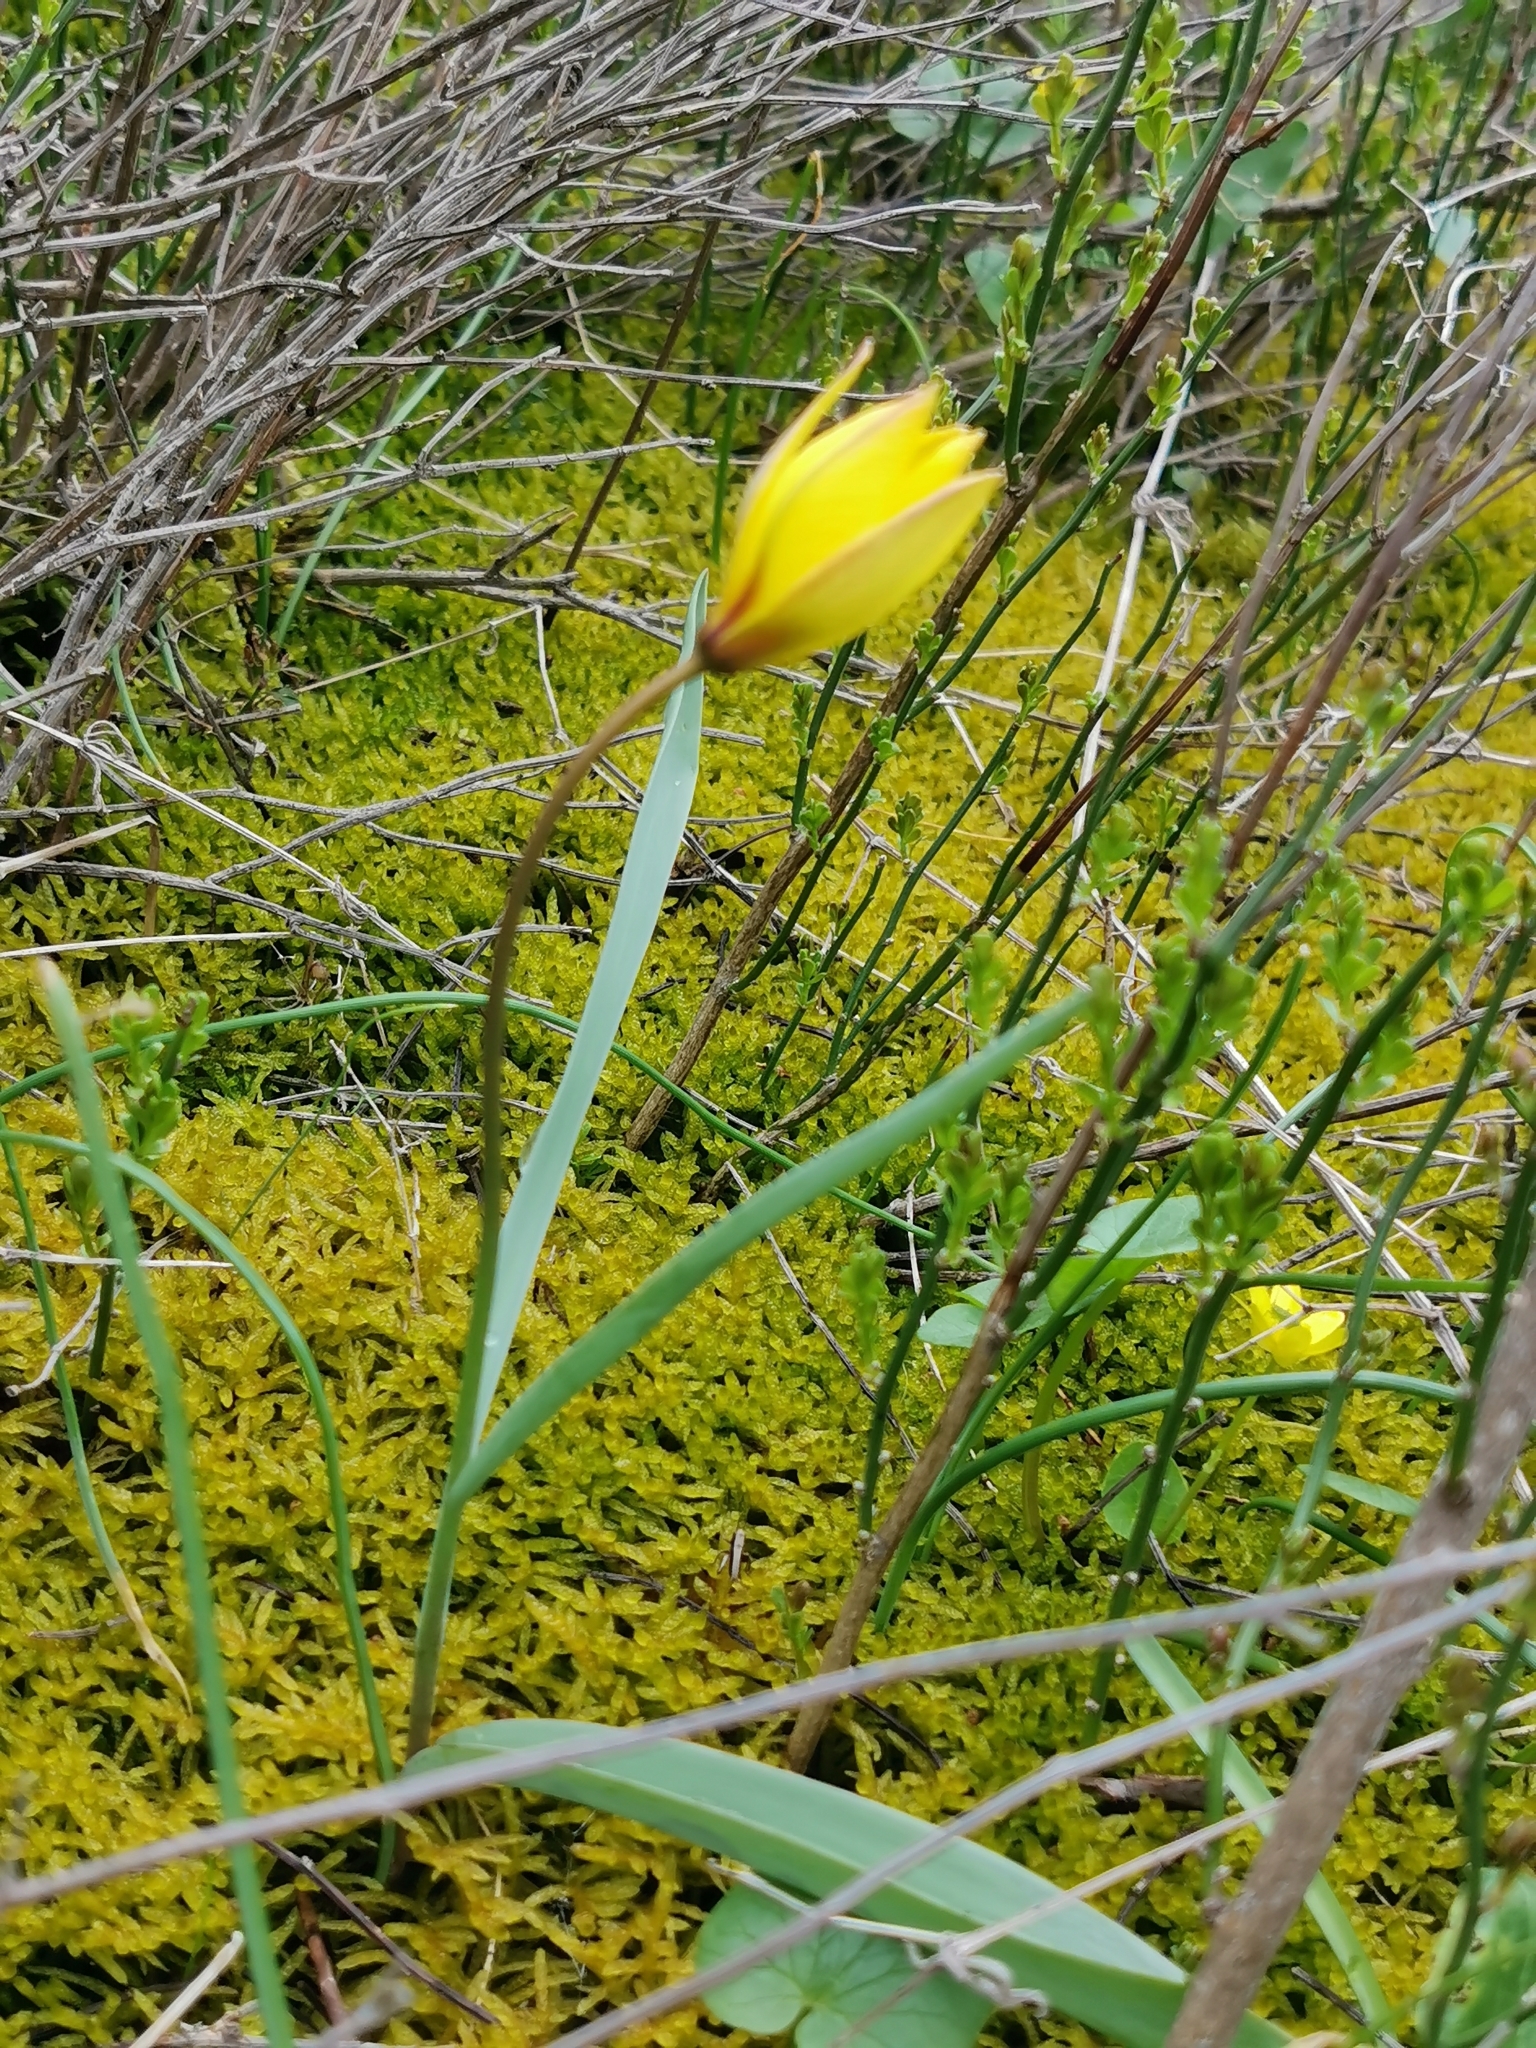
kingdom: Plantae
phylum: Tracheophyta
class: Liliopsida
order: Liliales
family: Liliaceae
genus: Tulipa
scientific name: Tulipa sylvestris
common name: Wild tulip
